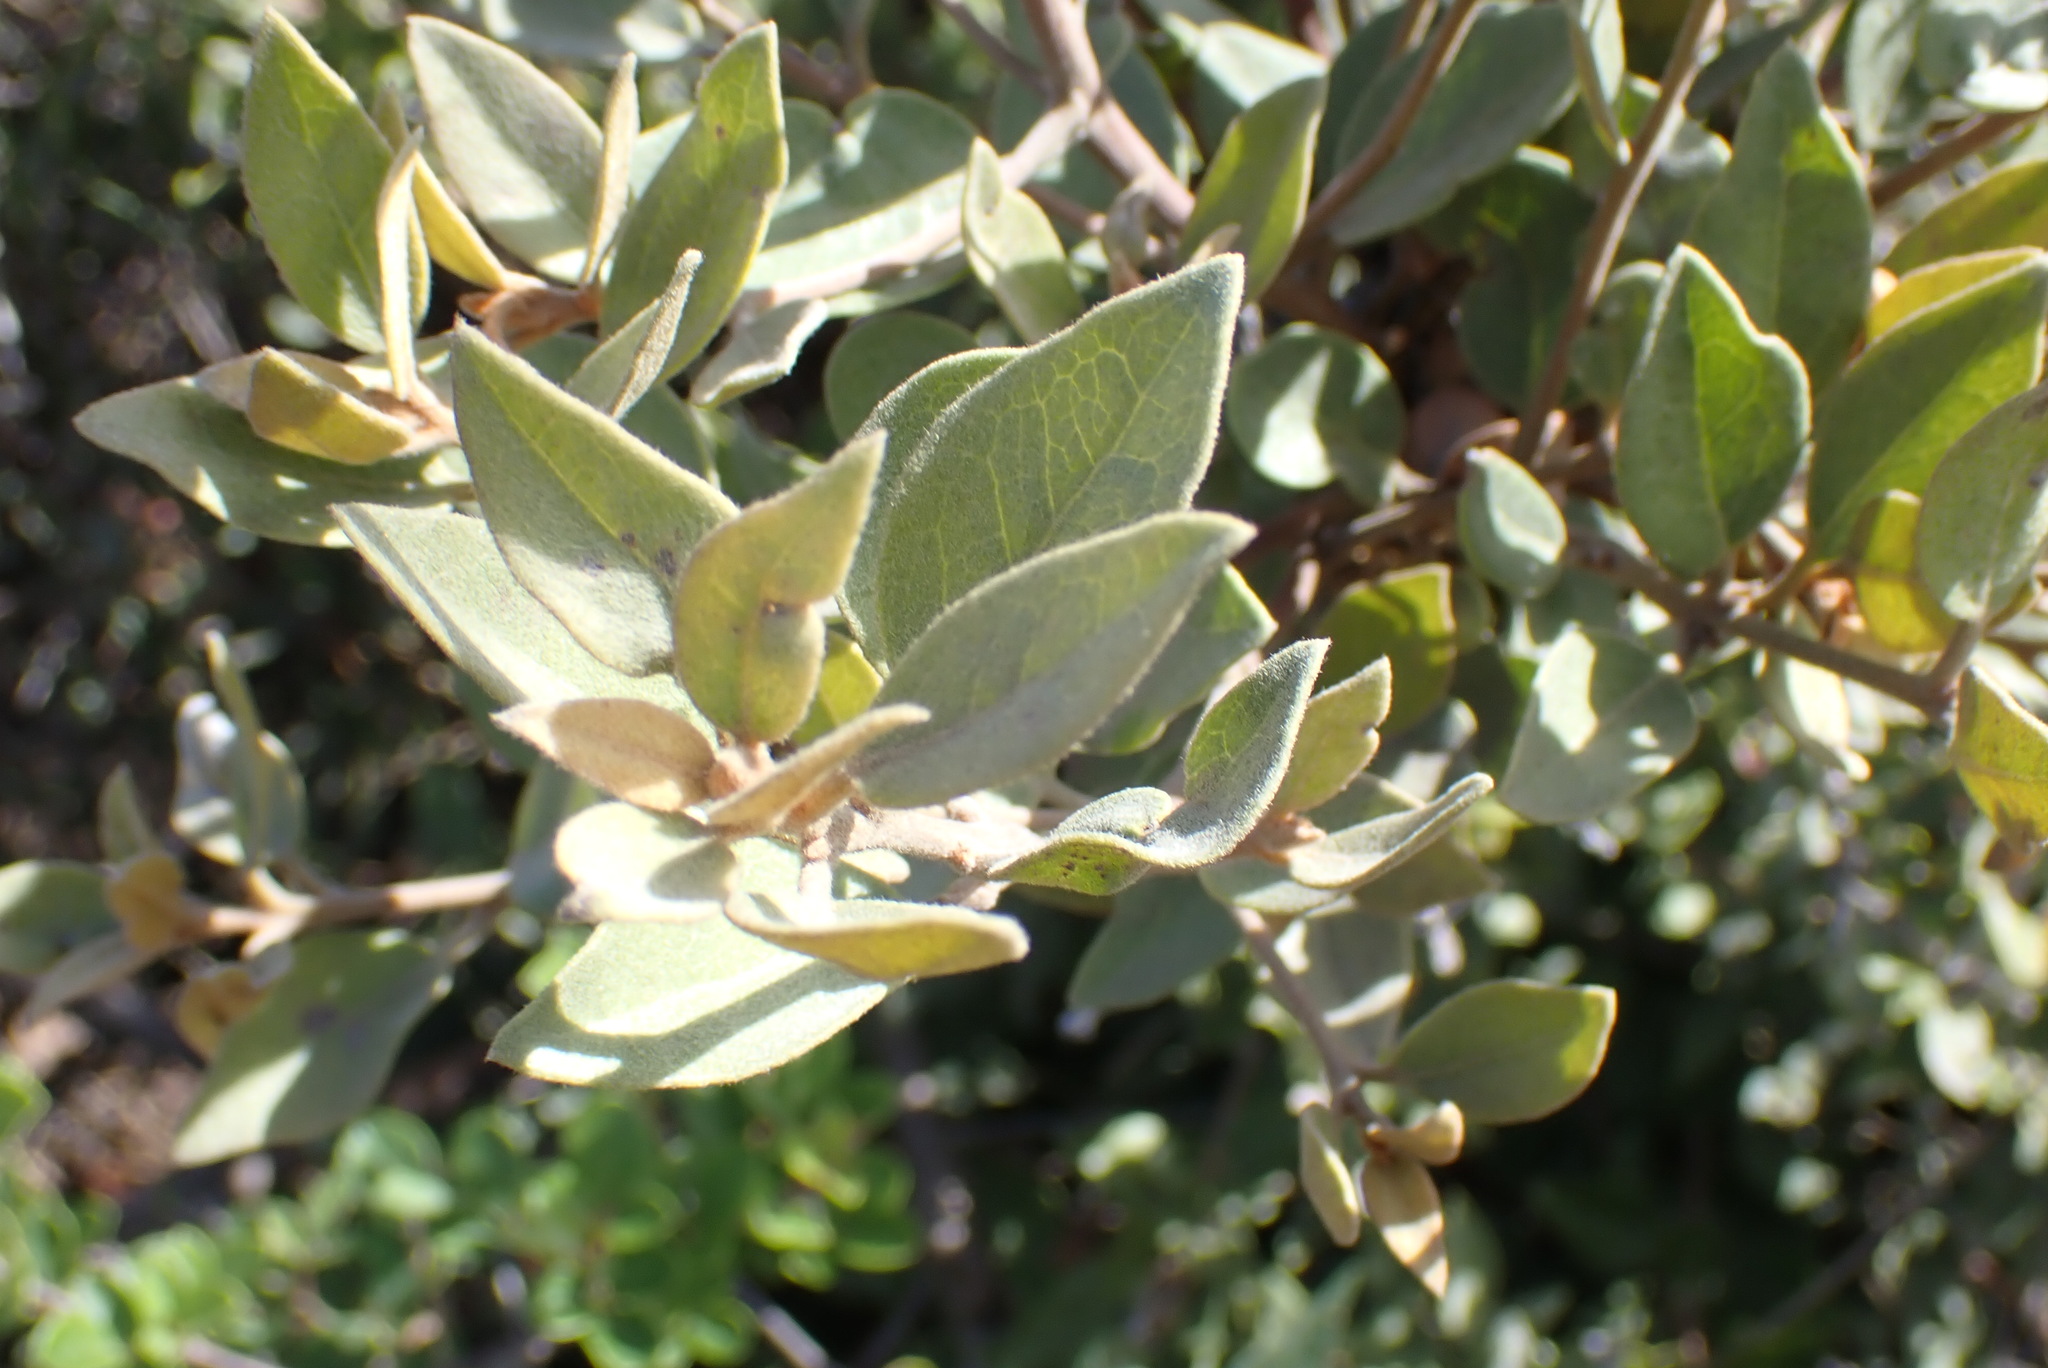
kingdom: Plantae
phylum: Tracheophyta
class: Magnoliopsida
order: Ericales
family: Ebenaceae
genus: Euclea
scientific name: Euclea polyandra
